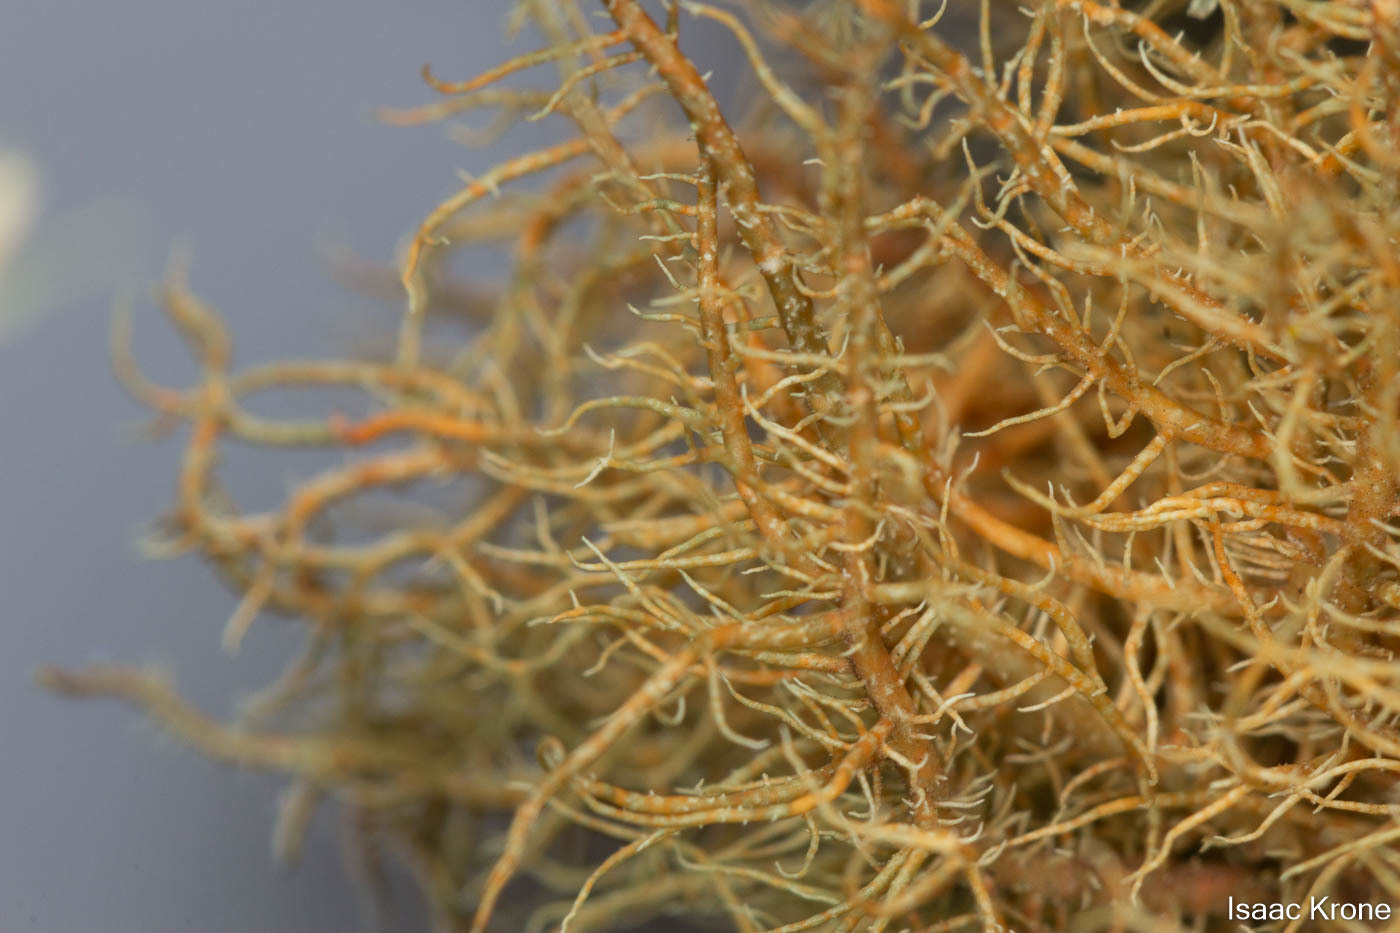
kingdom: Fungi
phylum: Ascomycota
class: Lecanoromycetes
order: Lecanorales
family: Parmeliaceae
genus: Usnea
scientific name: Usnea rubicunda
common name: Red beard lichen
